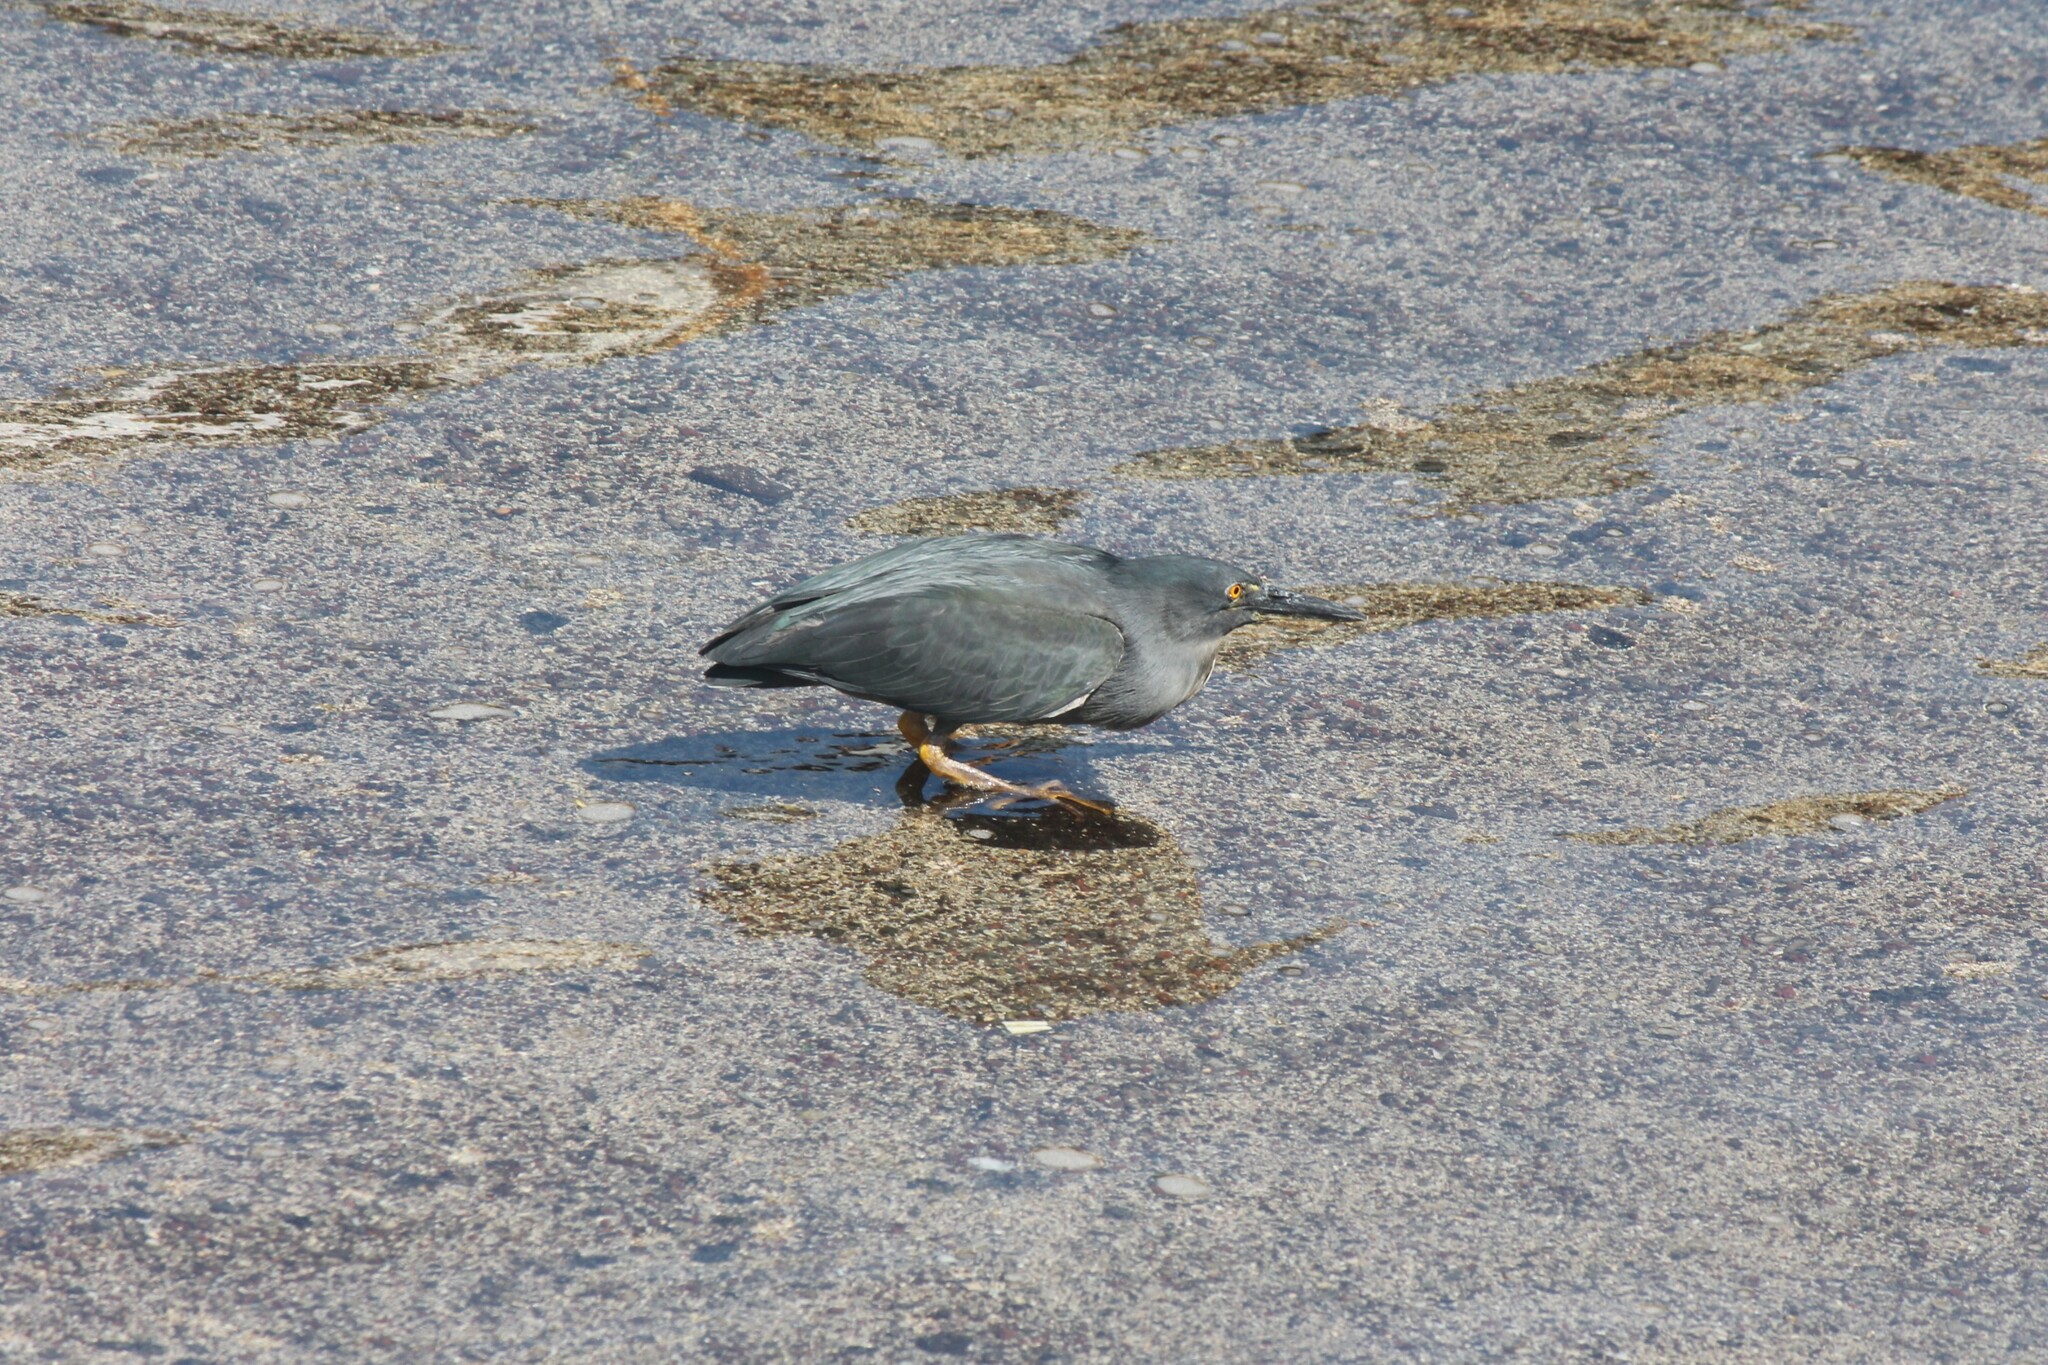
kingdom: Animalia
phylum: Chordata
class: Aves
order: Pelecaniformes
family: Ardeidae
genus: Butorides
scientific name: Butorides striata
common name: Striated heron
